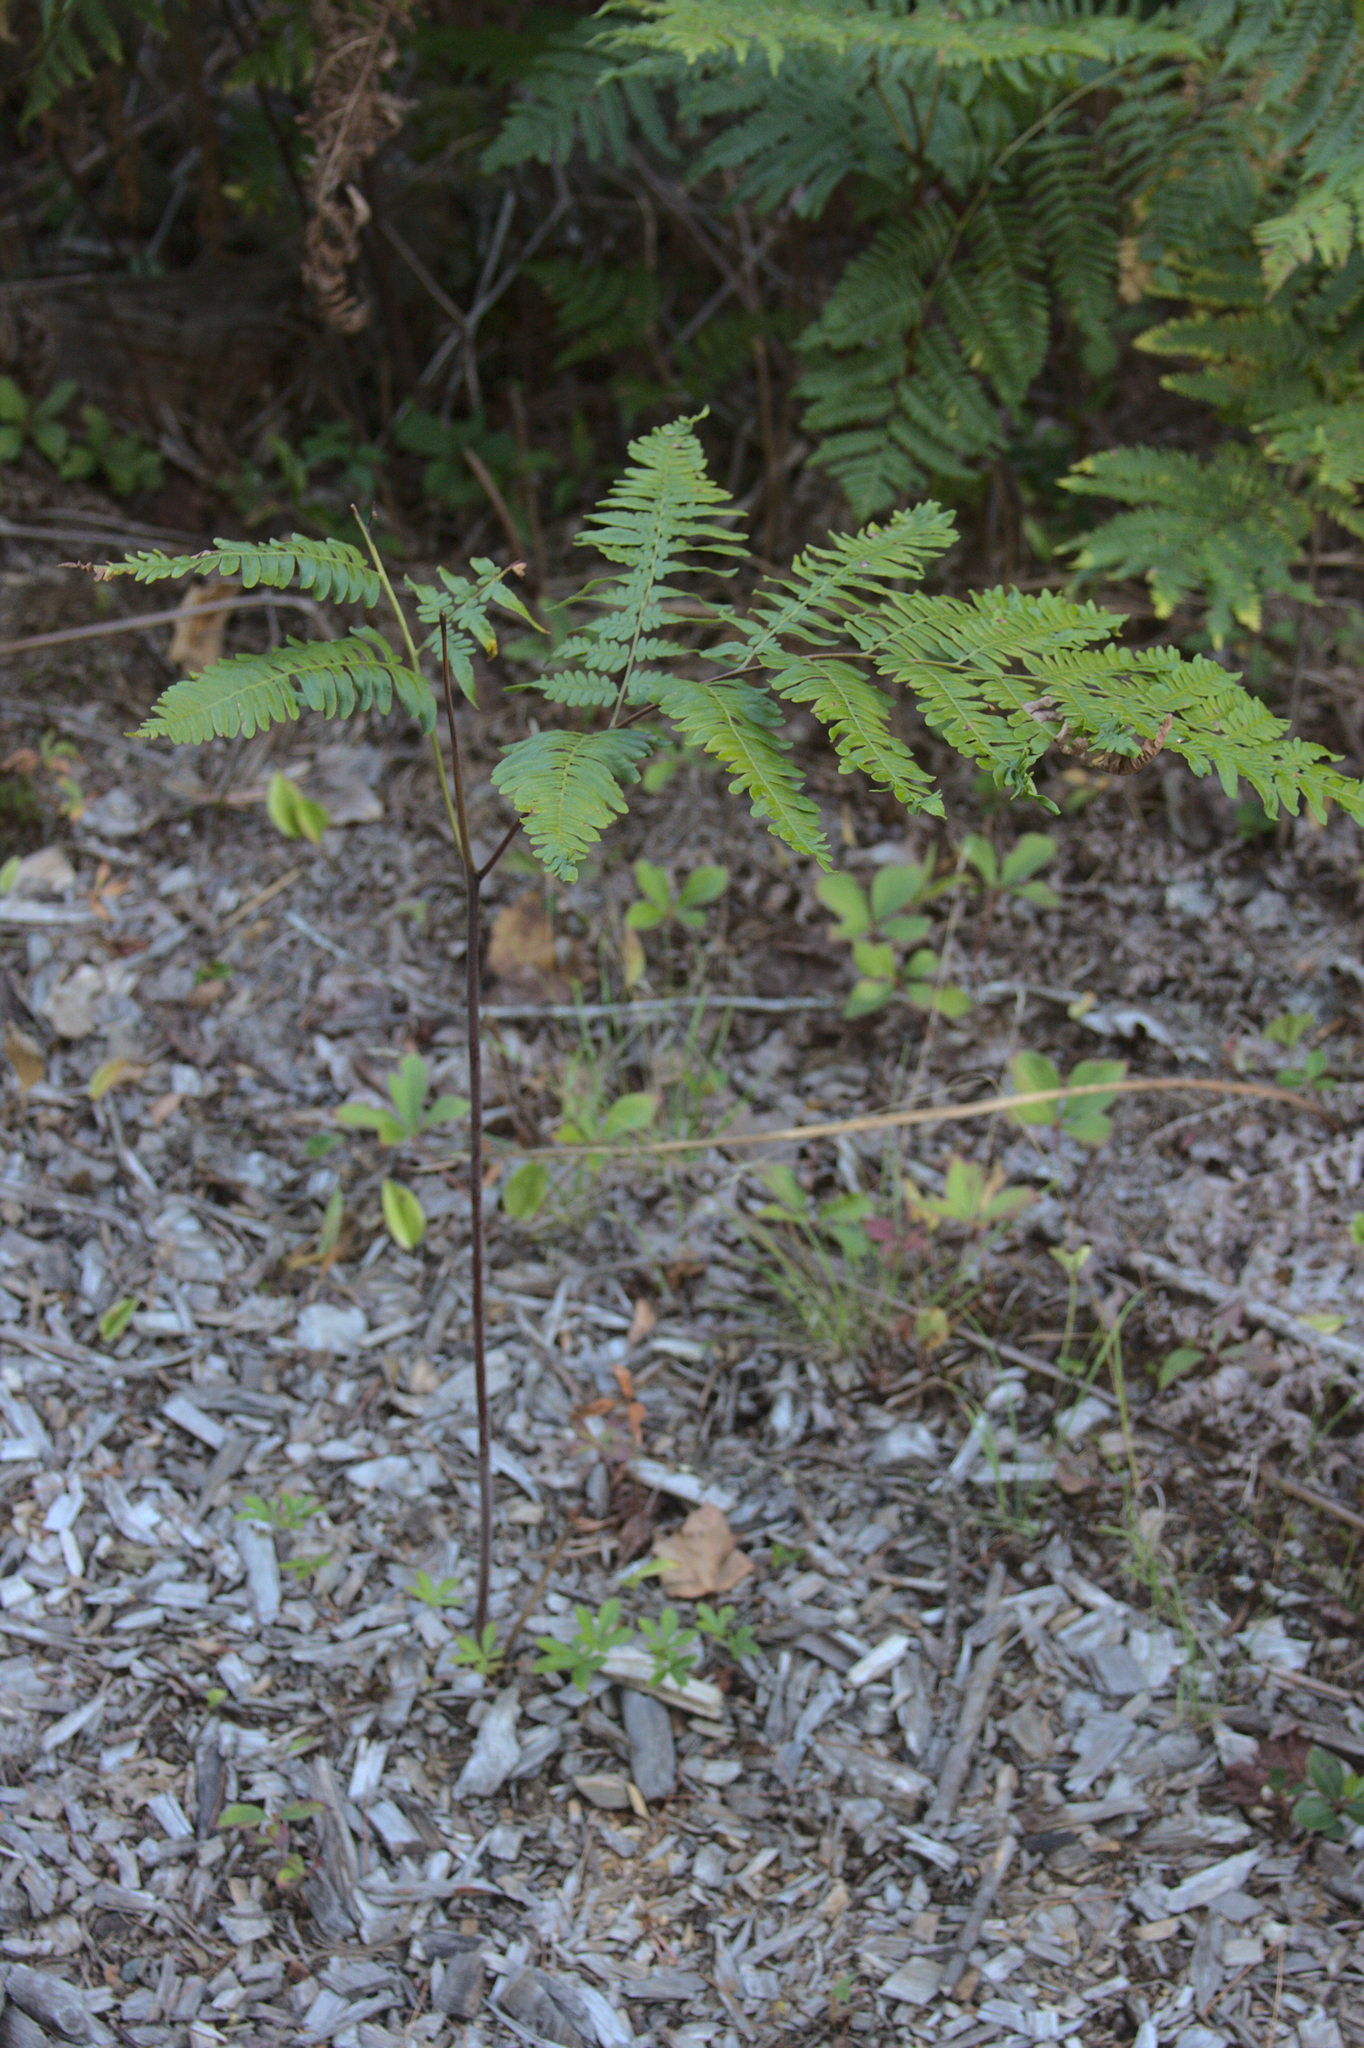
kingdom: Plantae
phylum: Tracheophyta
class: Polypodiopsida
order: Polypodiales
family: Dennstaedtiaceae
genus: Pteridium
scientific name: Pteridium aquilinum
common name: Bracken
